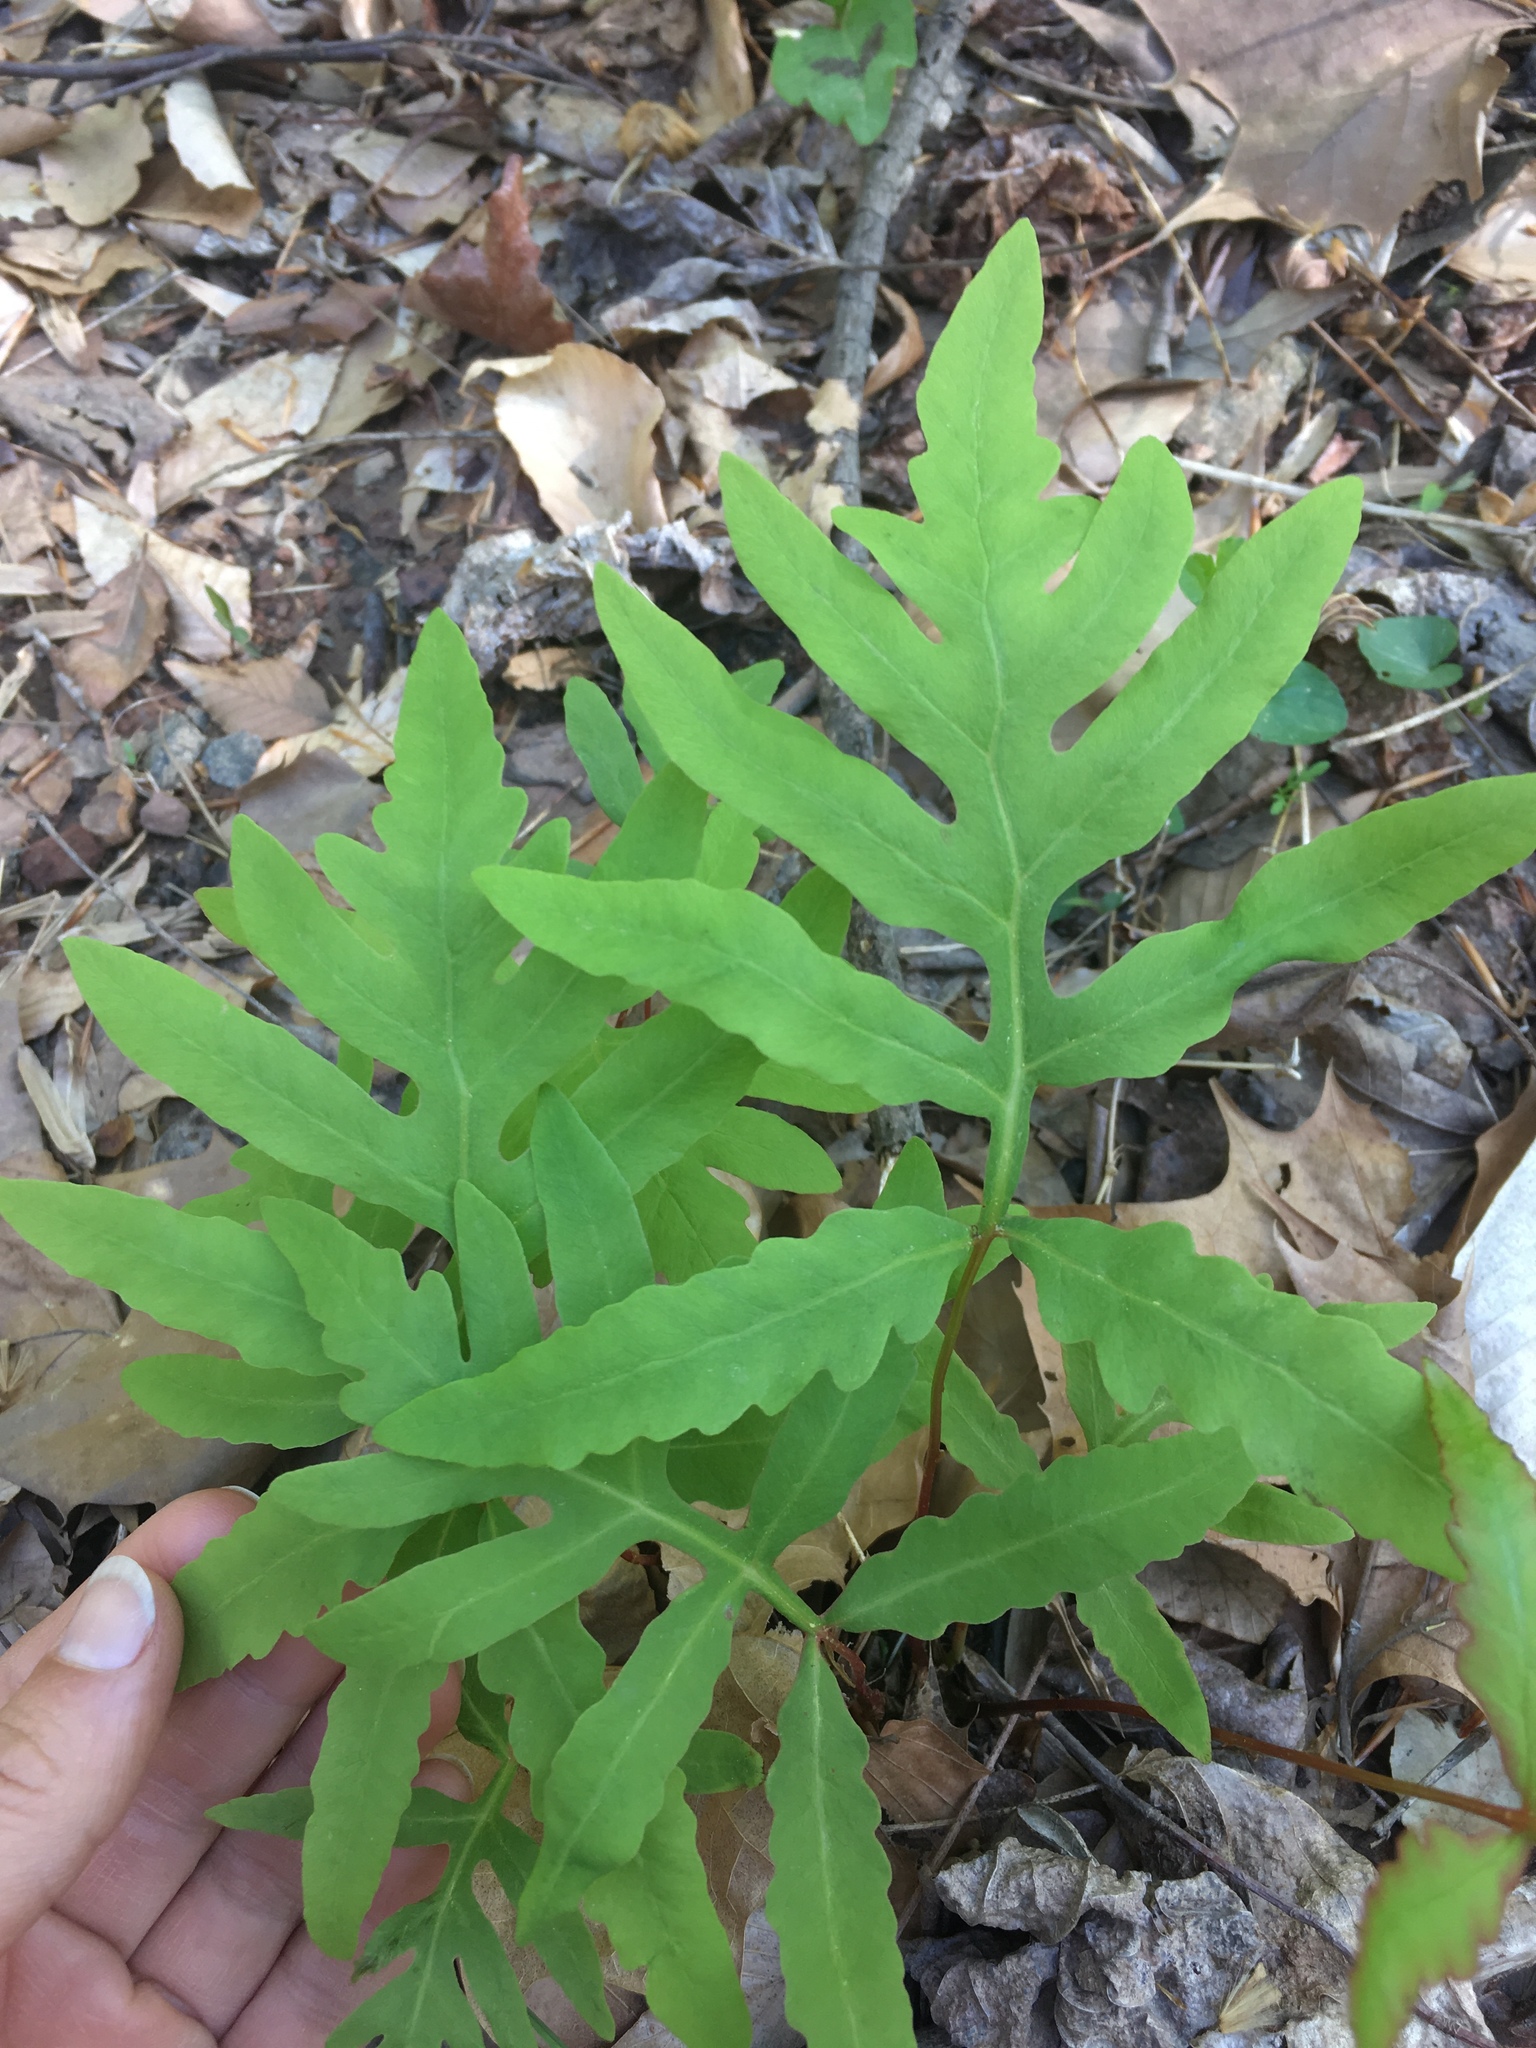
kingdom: Plantae
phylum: Tracheophyta
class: Polypodiopsida
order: Polypodiales
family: Onocleaceae
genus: Onoclea
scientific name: Onoclea sensibilis
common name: Sensitive fern
